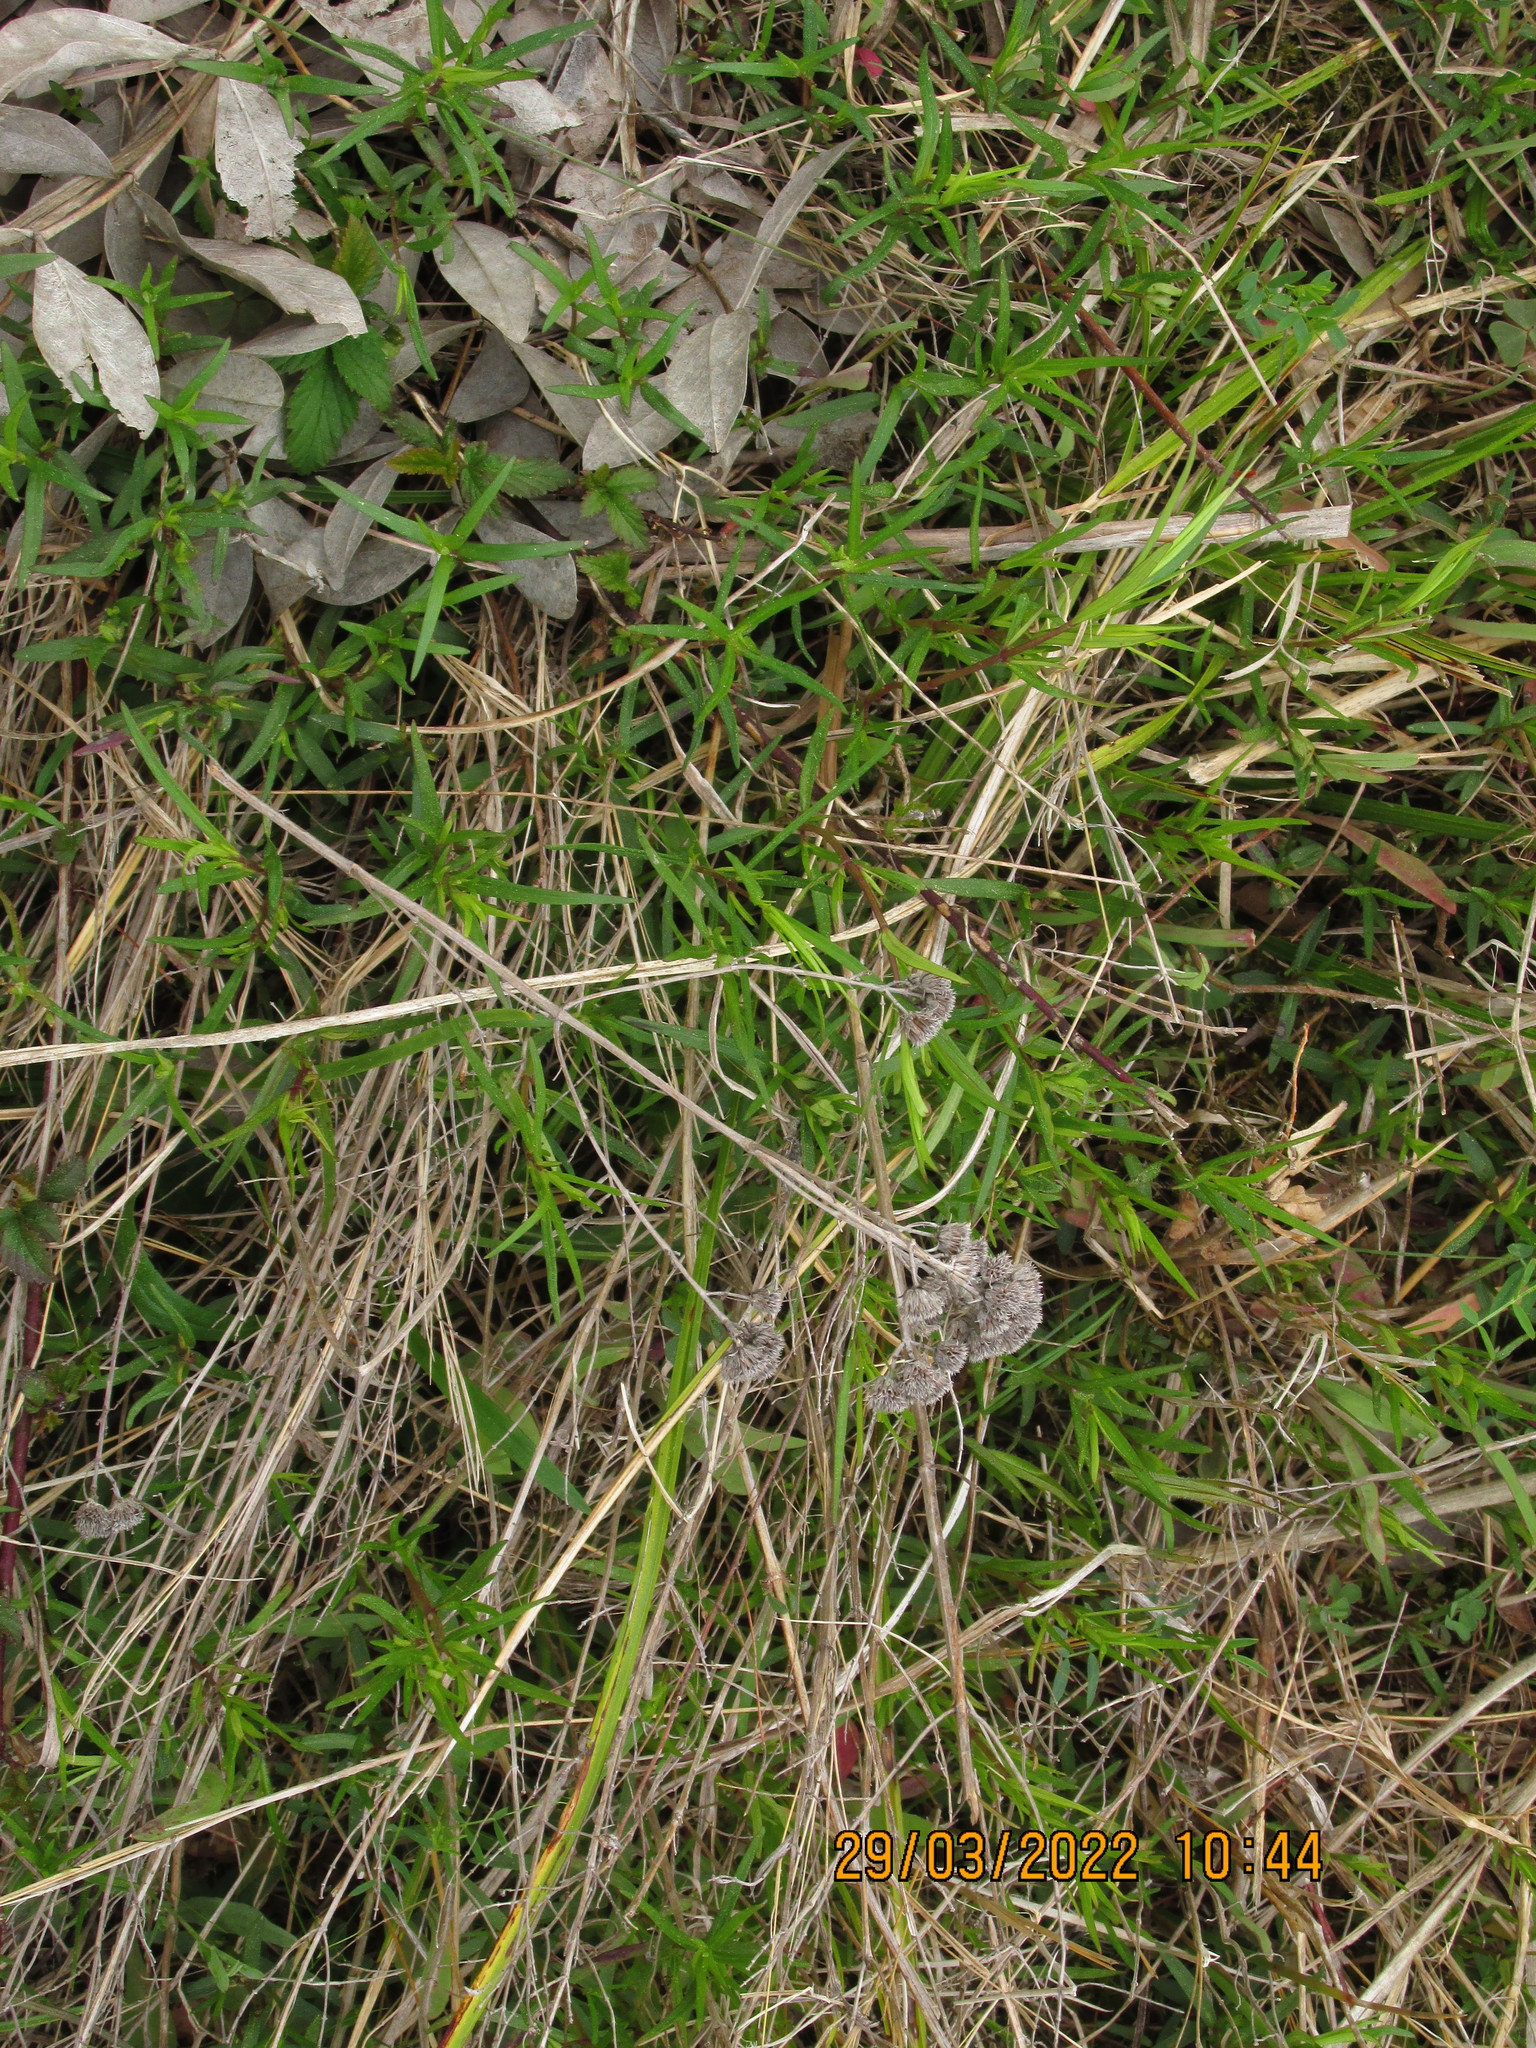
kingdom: Plantae
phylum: Tracheophyta
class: Magnoliopsida
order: Lamiales
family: Lamiaceae
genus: Pycnanthemum
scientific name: Pycnanthemum tenuifolium
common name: Narrow-leaf mountain-mint
